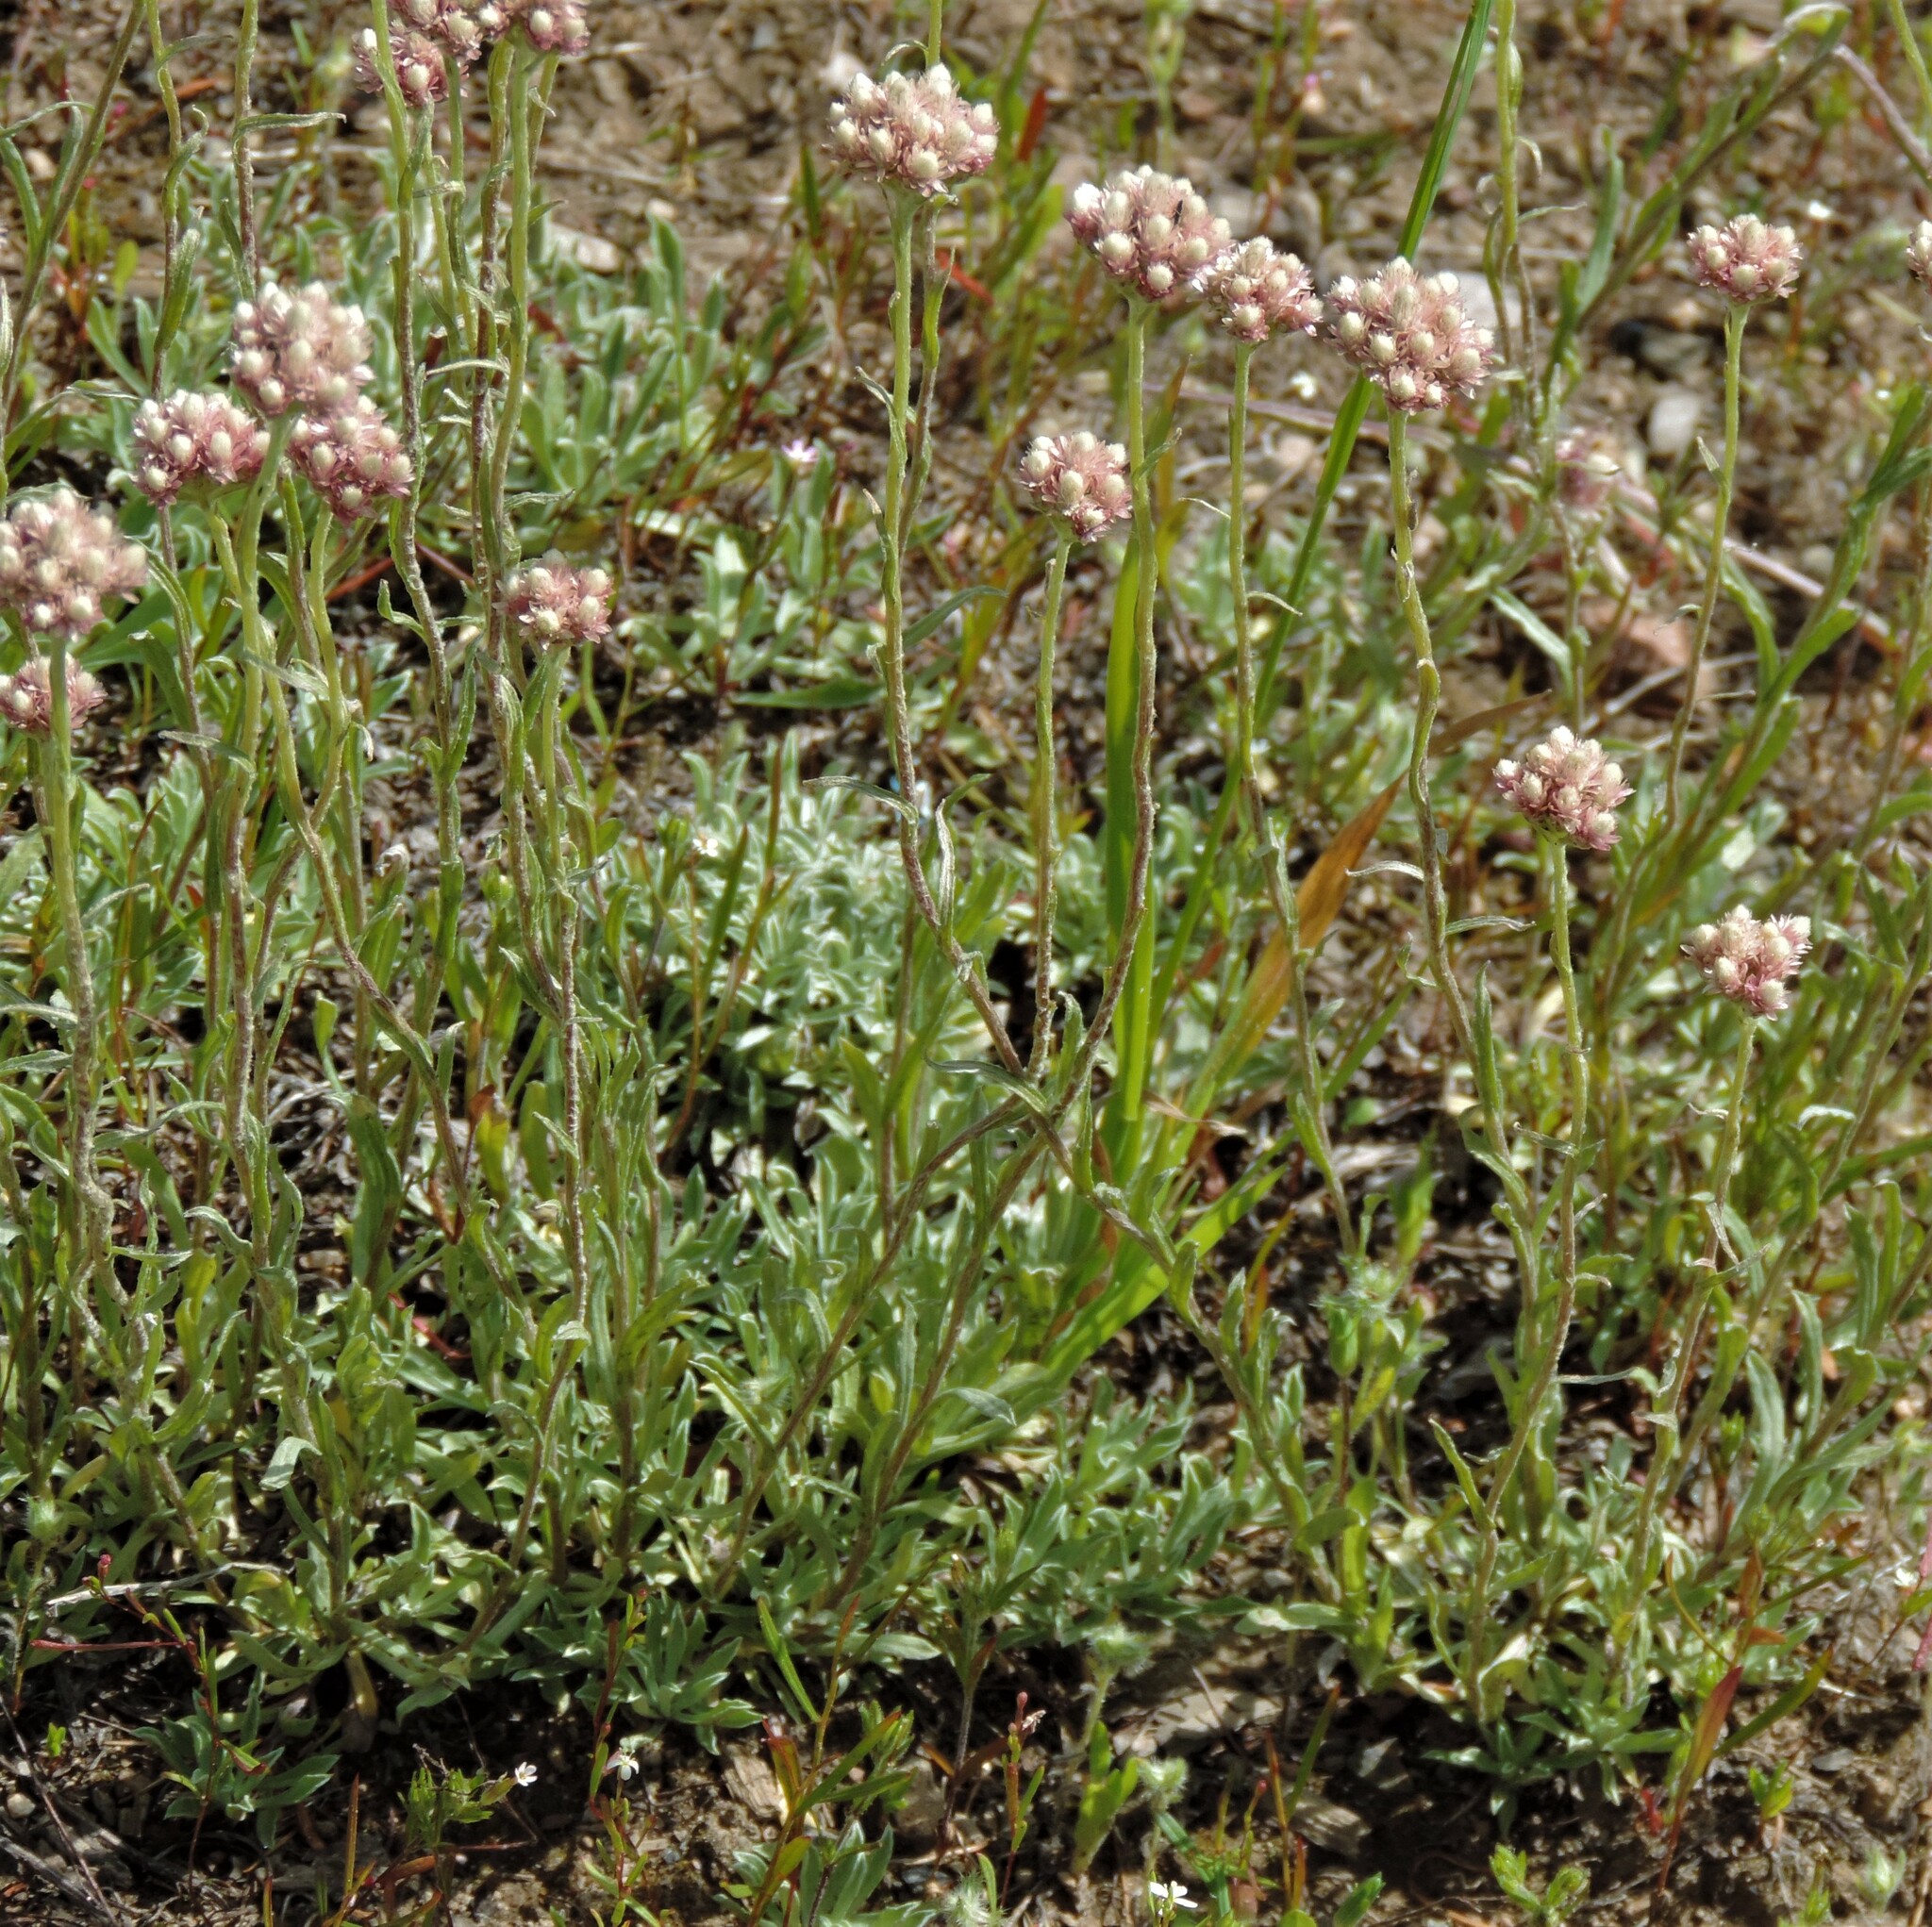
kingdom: Plantae
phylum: Tracheophyta
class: Magnoliopsida
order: Asterales
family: Asteraceae
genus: Antennaria
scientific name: Antennaria rosea
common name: Rosy pussytoes
